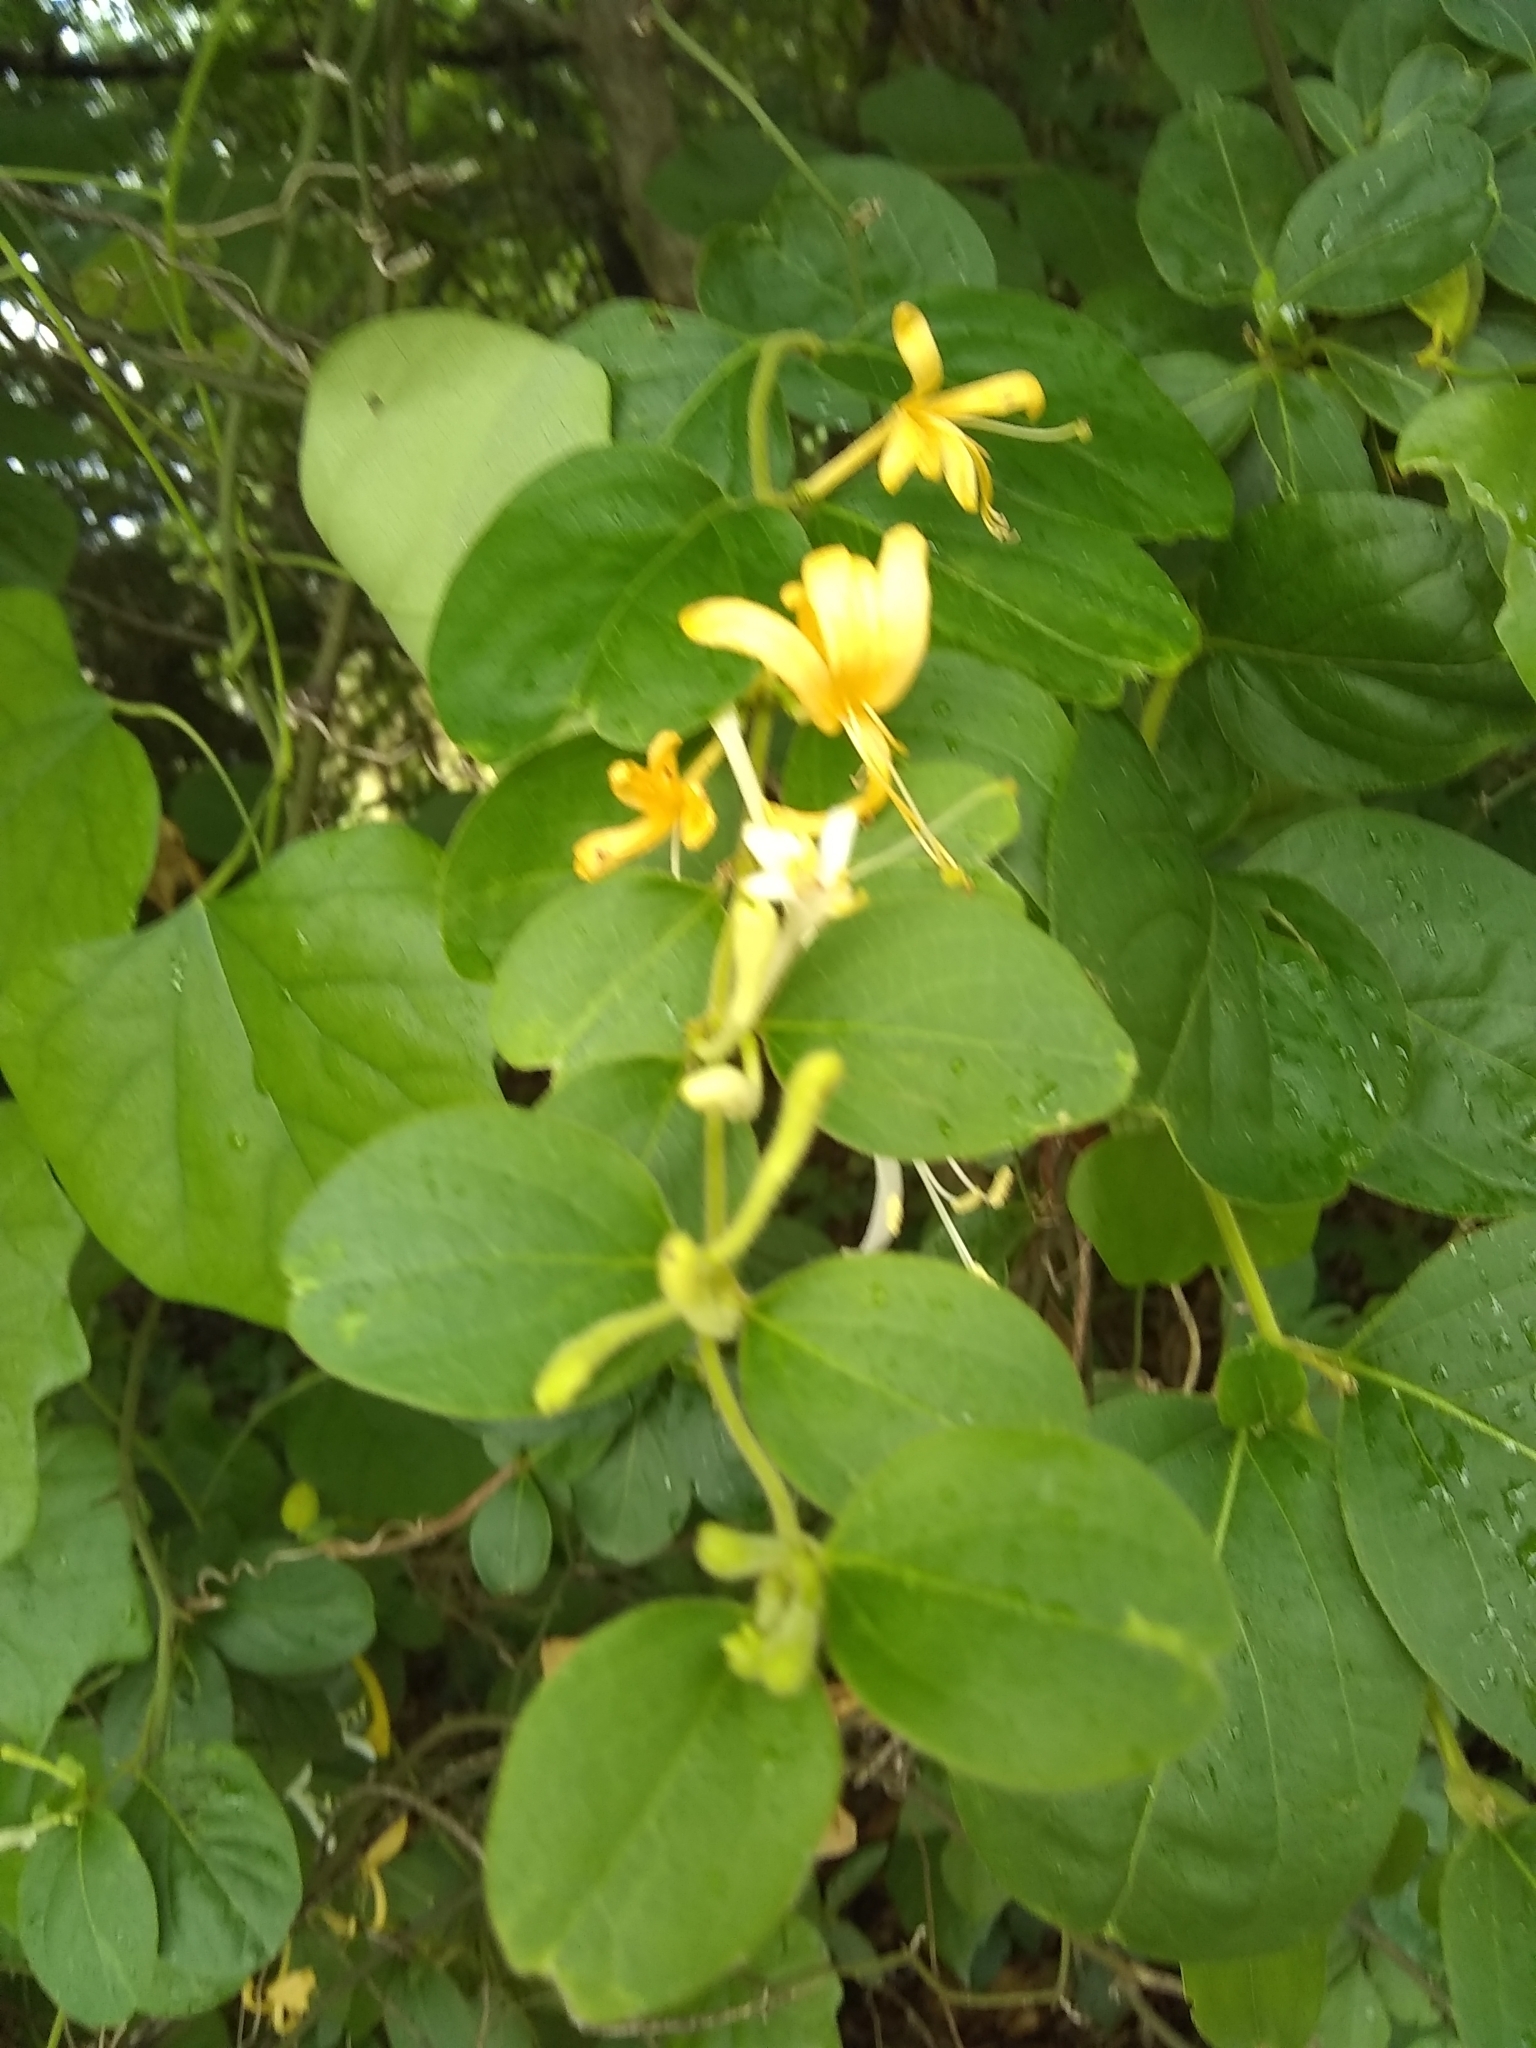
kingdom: Plantae
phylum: Tracheophyta
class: Magnoliopsida
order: Dipsacales
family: Caprifoliaceae
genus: Lonicera
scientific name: Lonicera japonica
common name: Japanese honeysuckle
